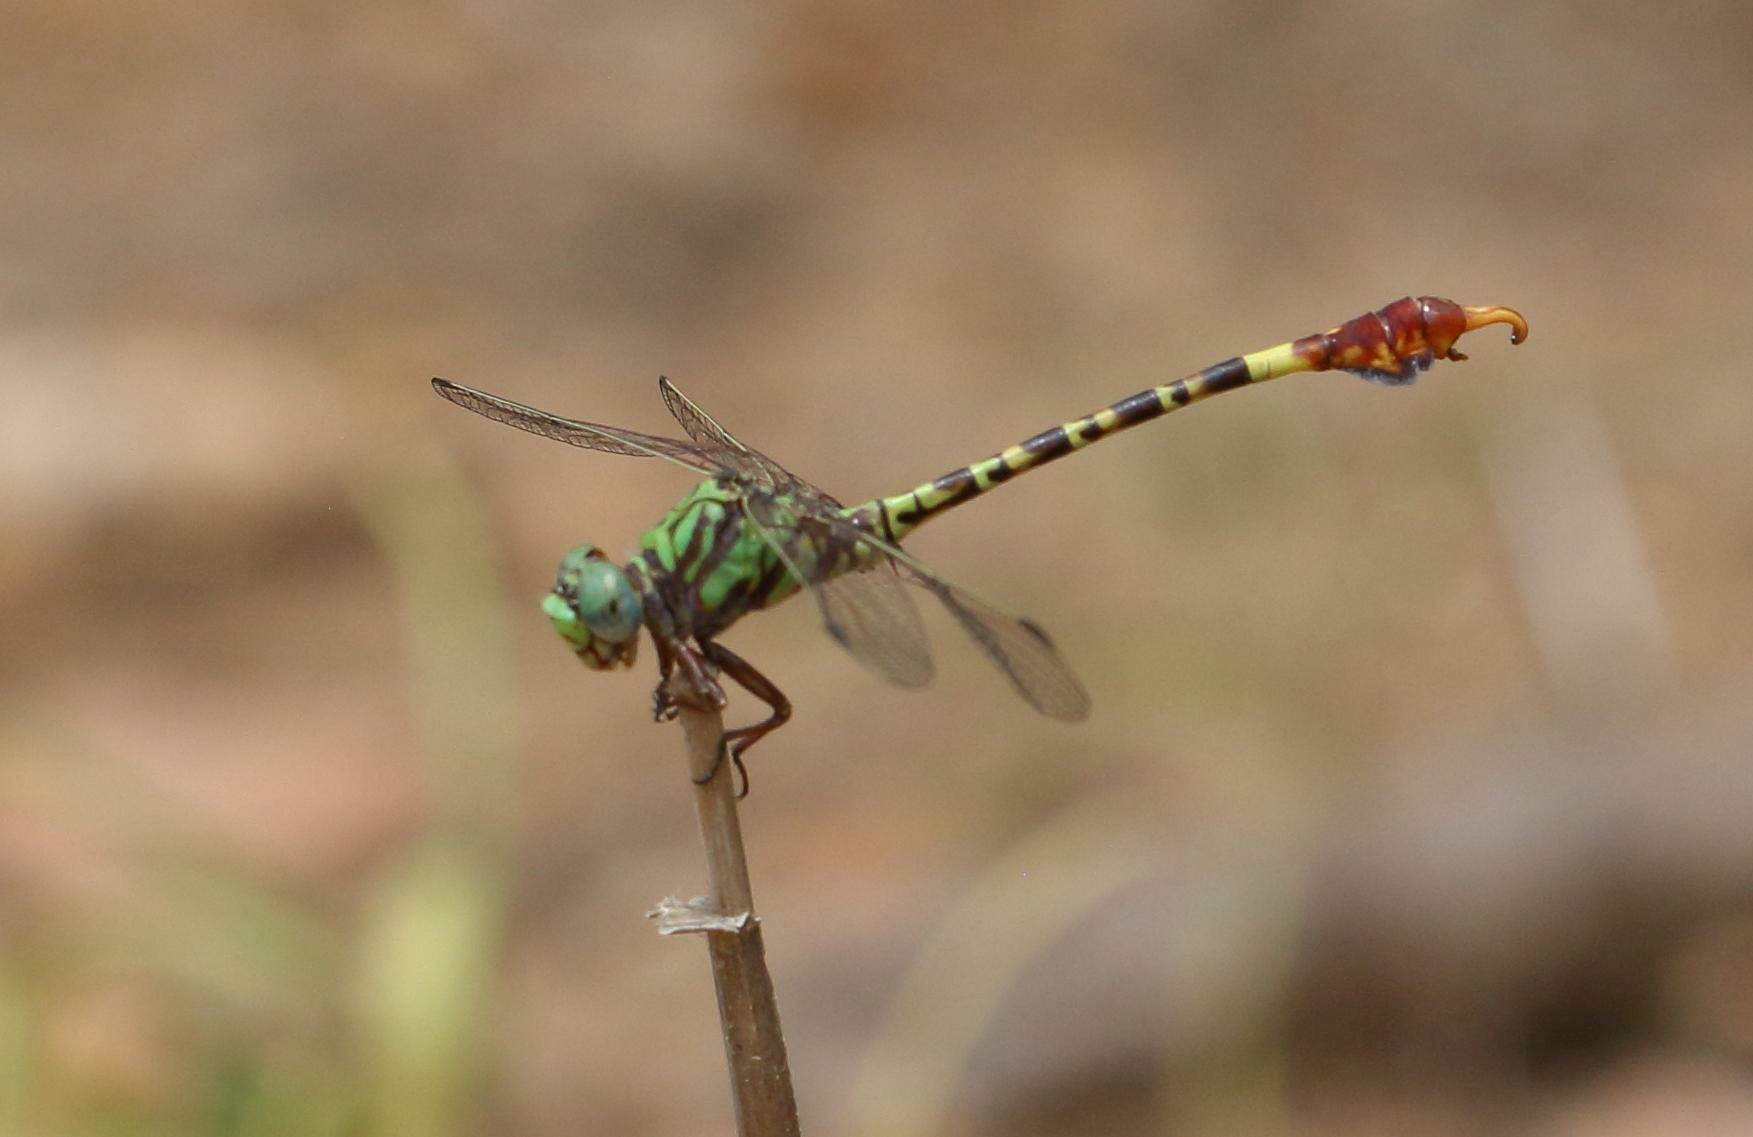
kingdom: Animalia
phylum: Arthropoda
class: Insecta
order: Odonata
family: Gomphidae
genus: Paragomphus
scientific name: Paragomphus elpidius
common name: Corkscrew hooktail
